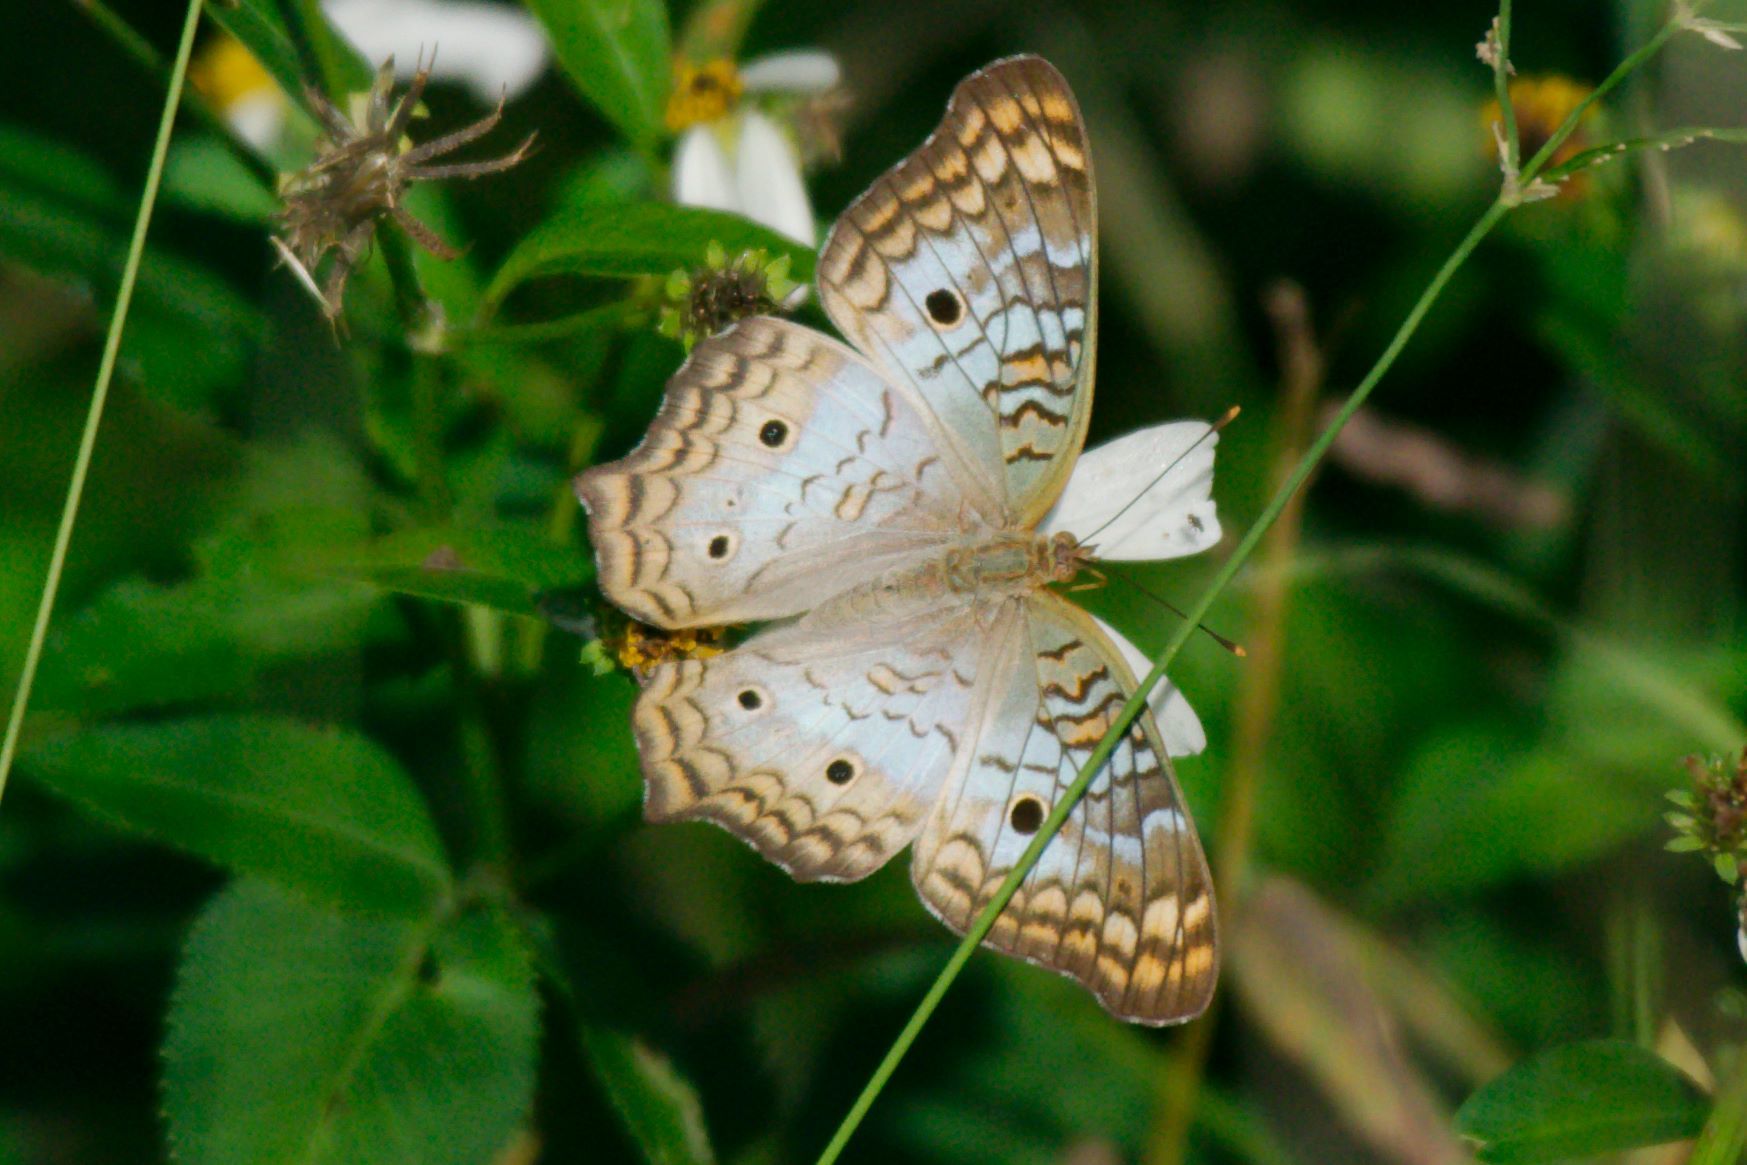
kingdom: Animalia
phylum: Arthropoda
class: Insecta
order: Lepidoptera
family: Nymphalidae
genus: Anartia
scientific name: Anartia jatrophae
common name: White peacock
